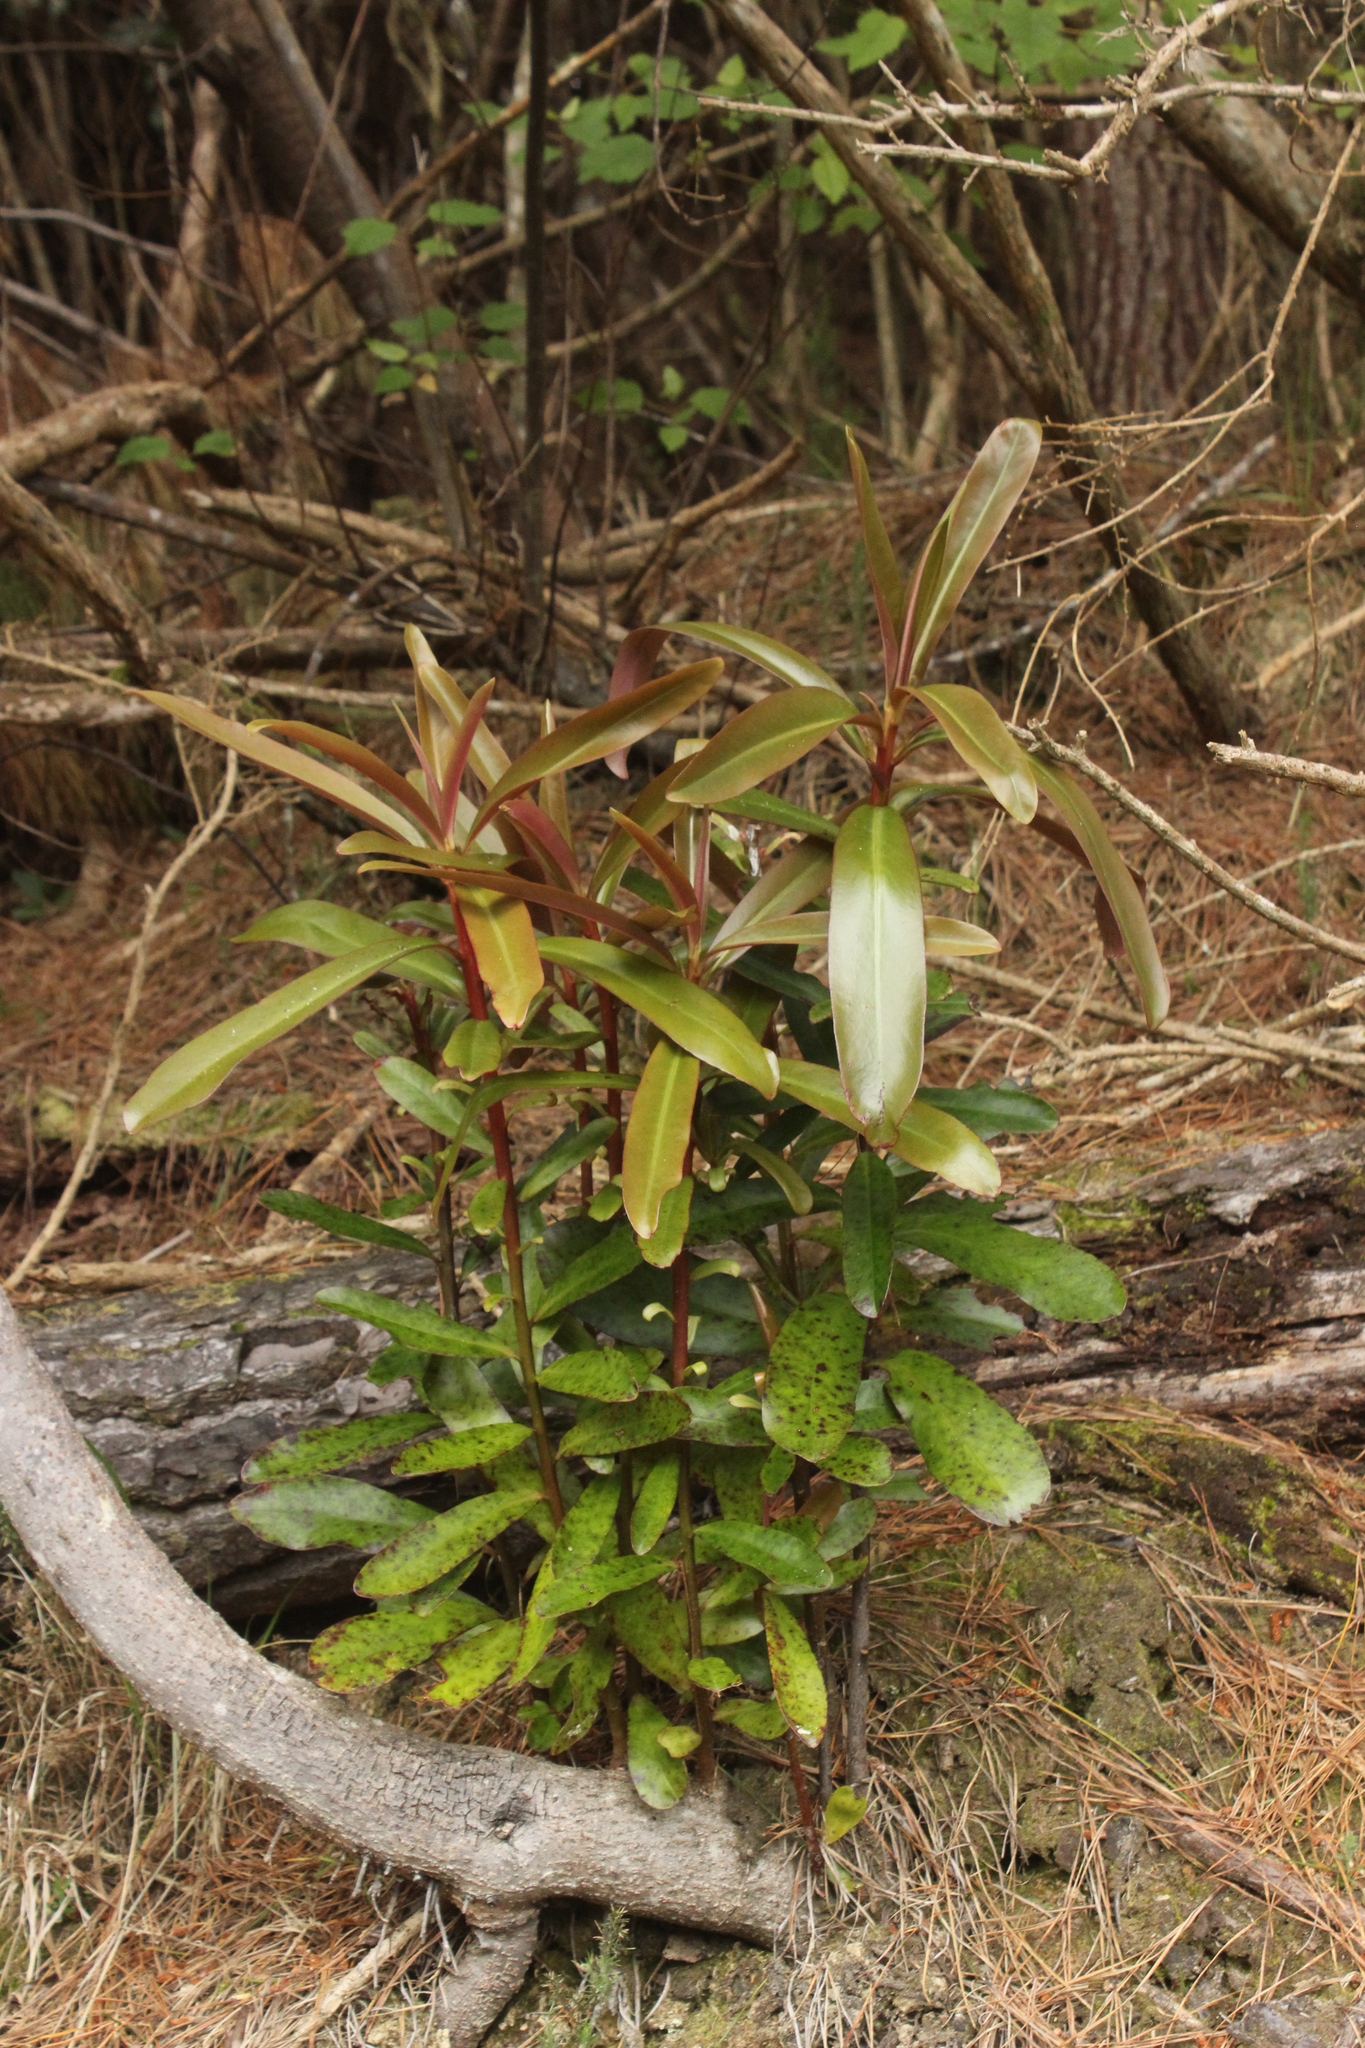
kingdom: Plantae
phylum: Tracheophyta
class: Magnoliopsida
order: Ericales
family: Primulaceae
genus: Myrsine
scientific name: Myrsine salicina
